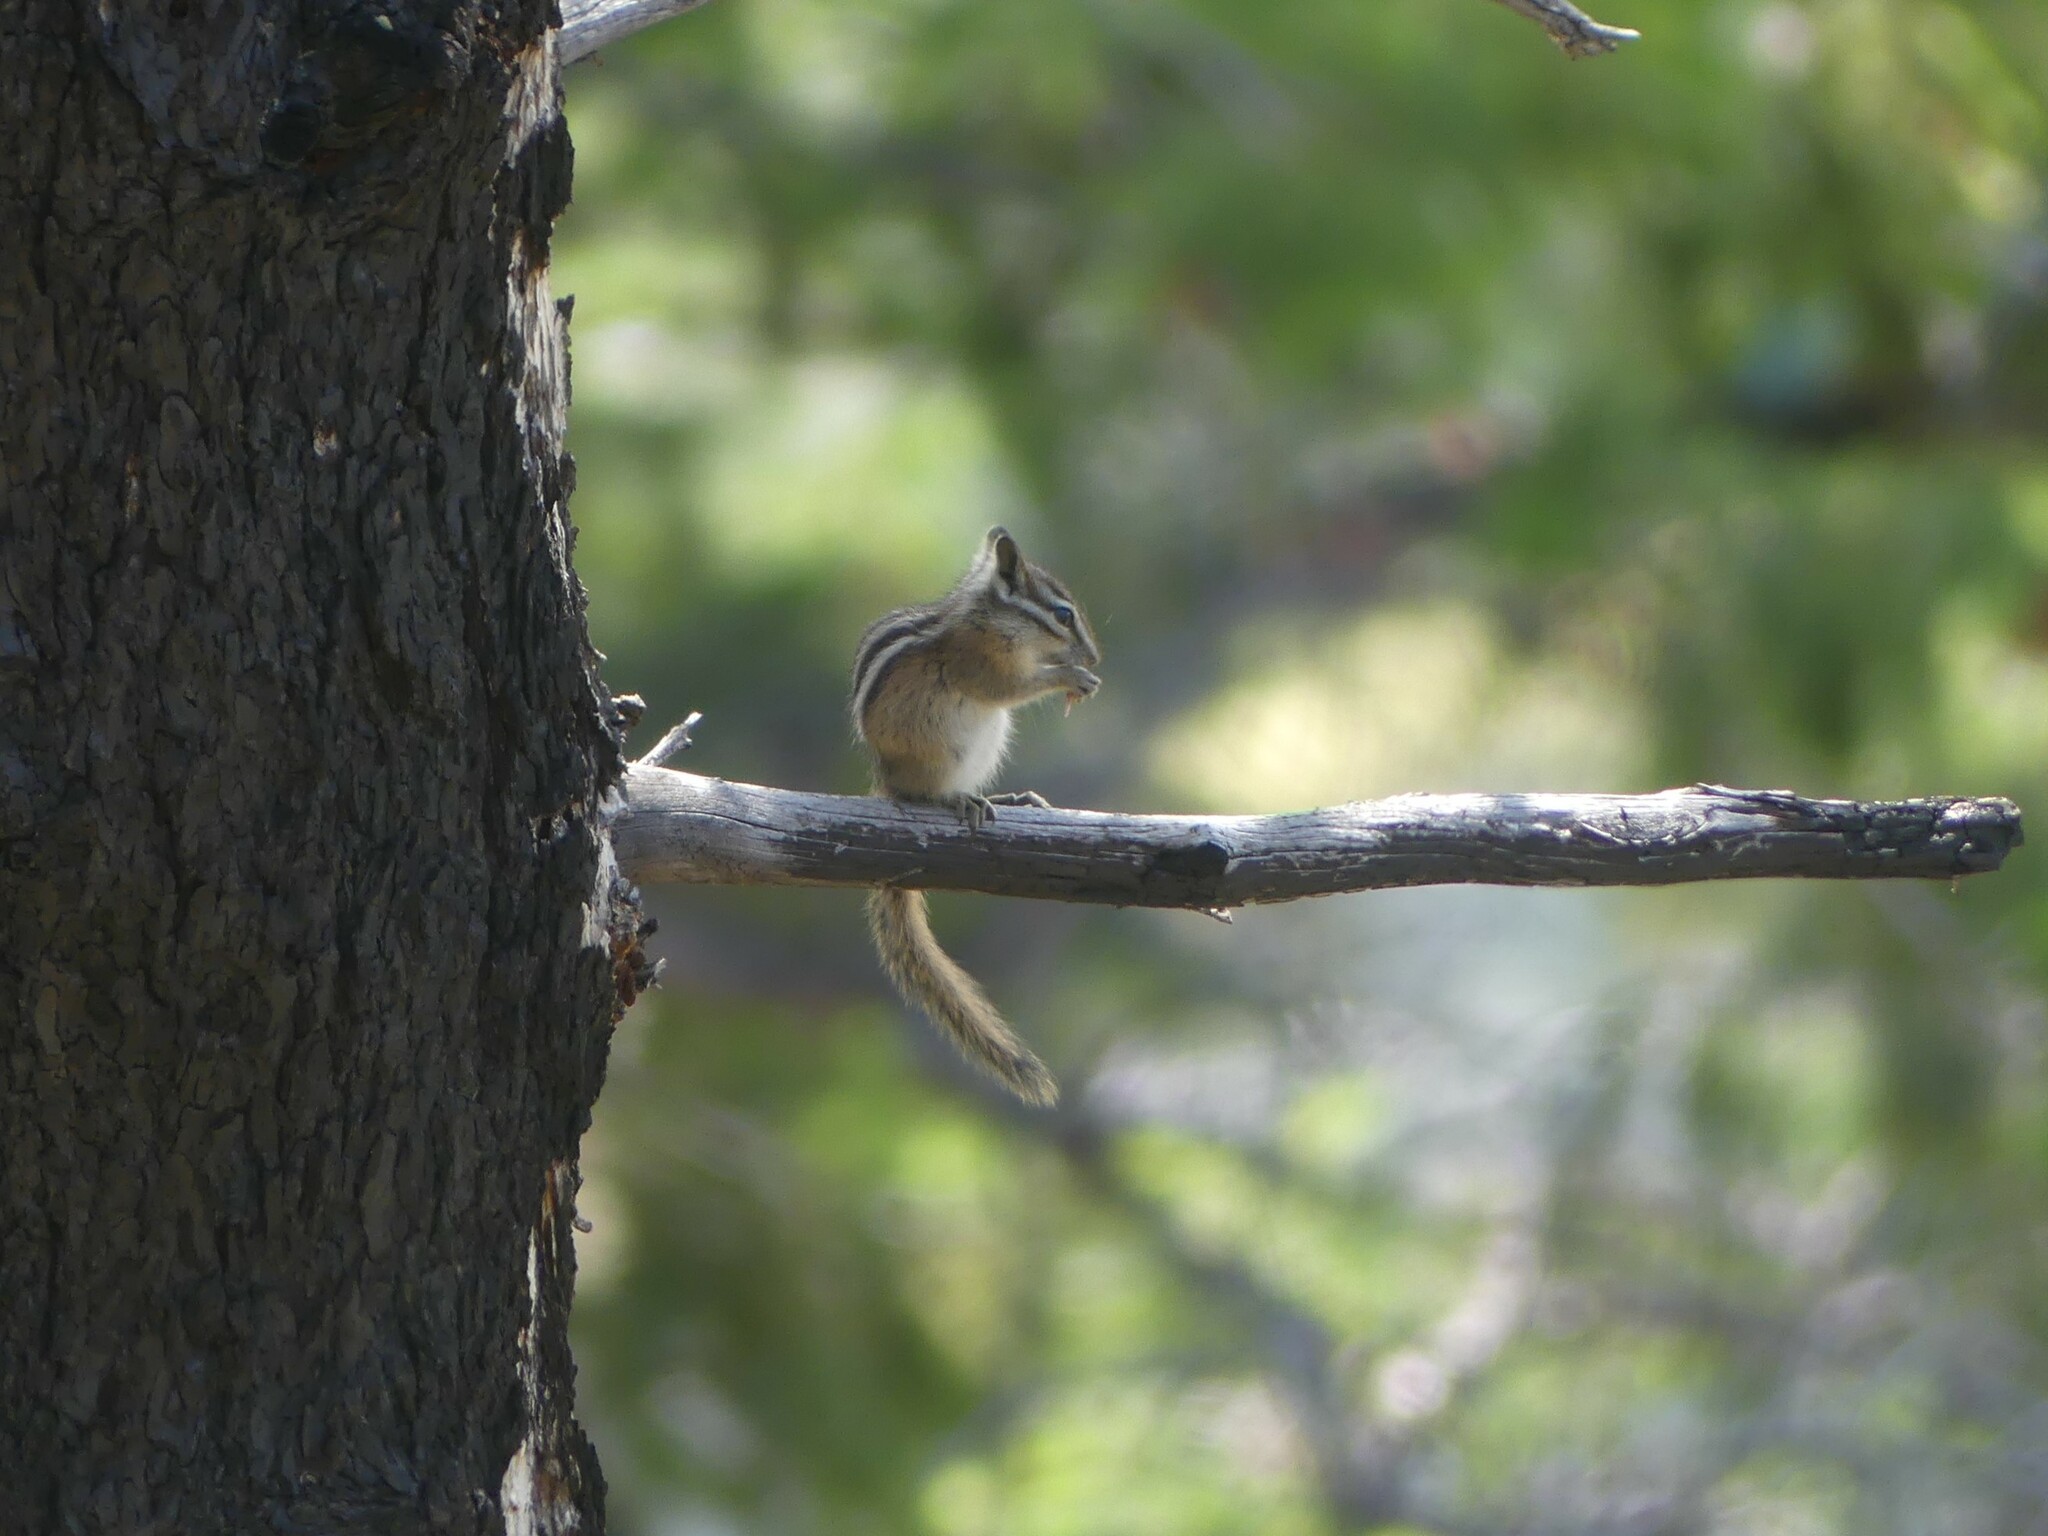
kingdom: Animalia
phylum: Chordata
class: Mammalia
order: Rodentia
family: Sciuridae
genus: Tamias
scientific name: Tamias amoenus
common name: Yellow-pine chipmunk
